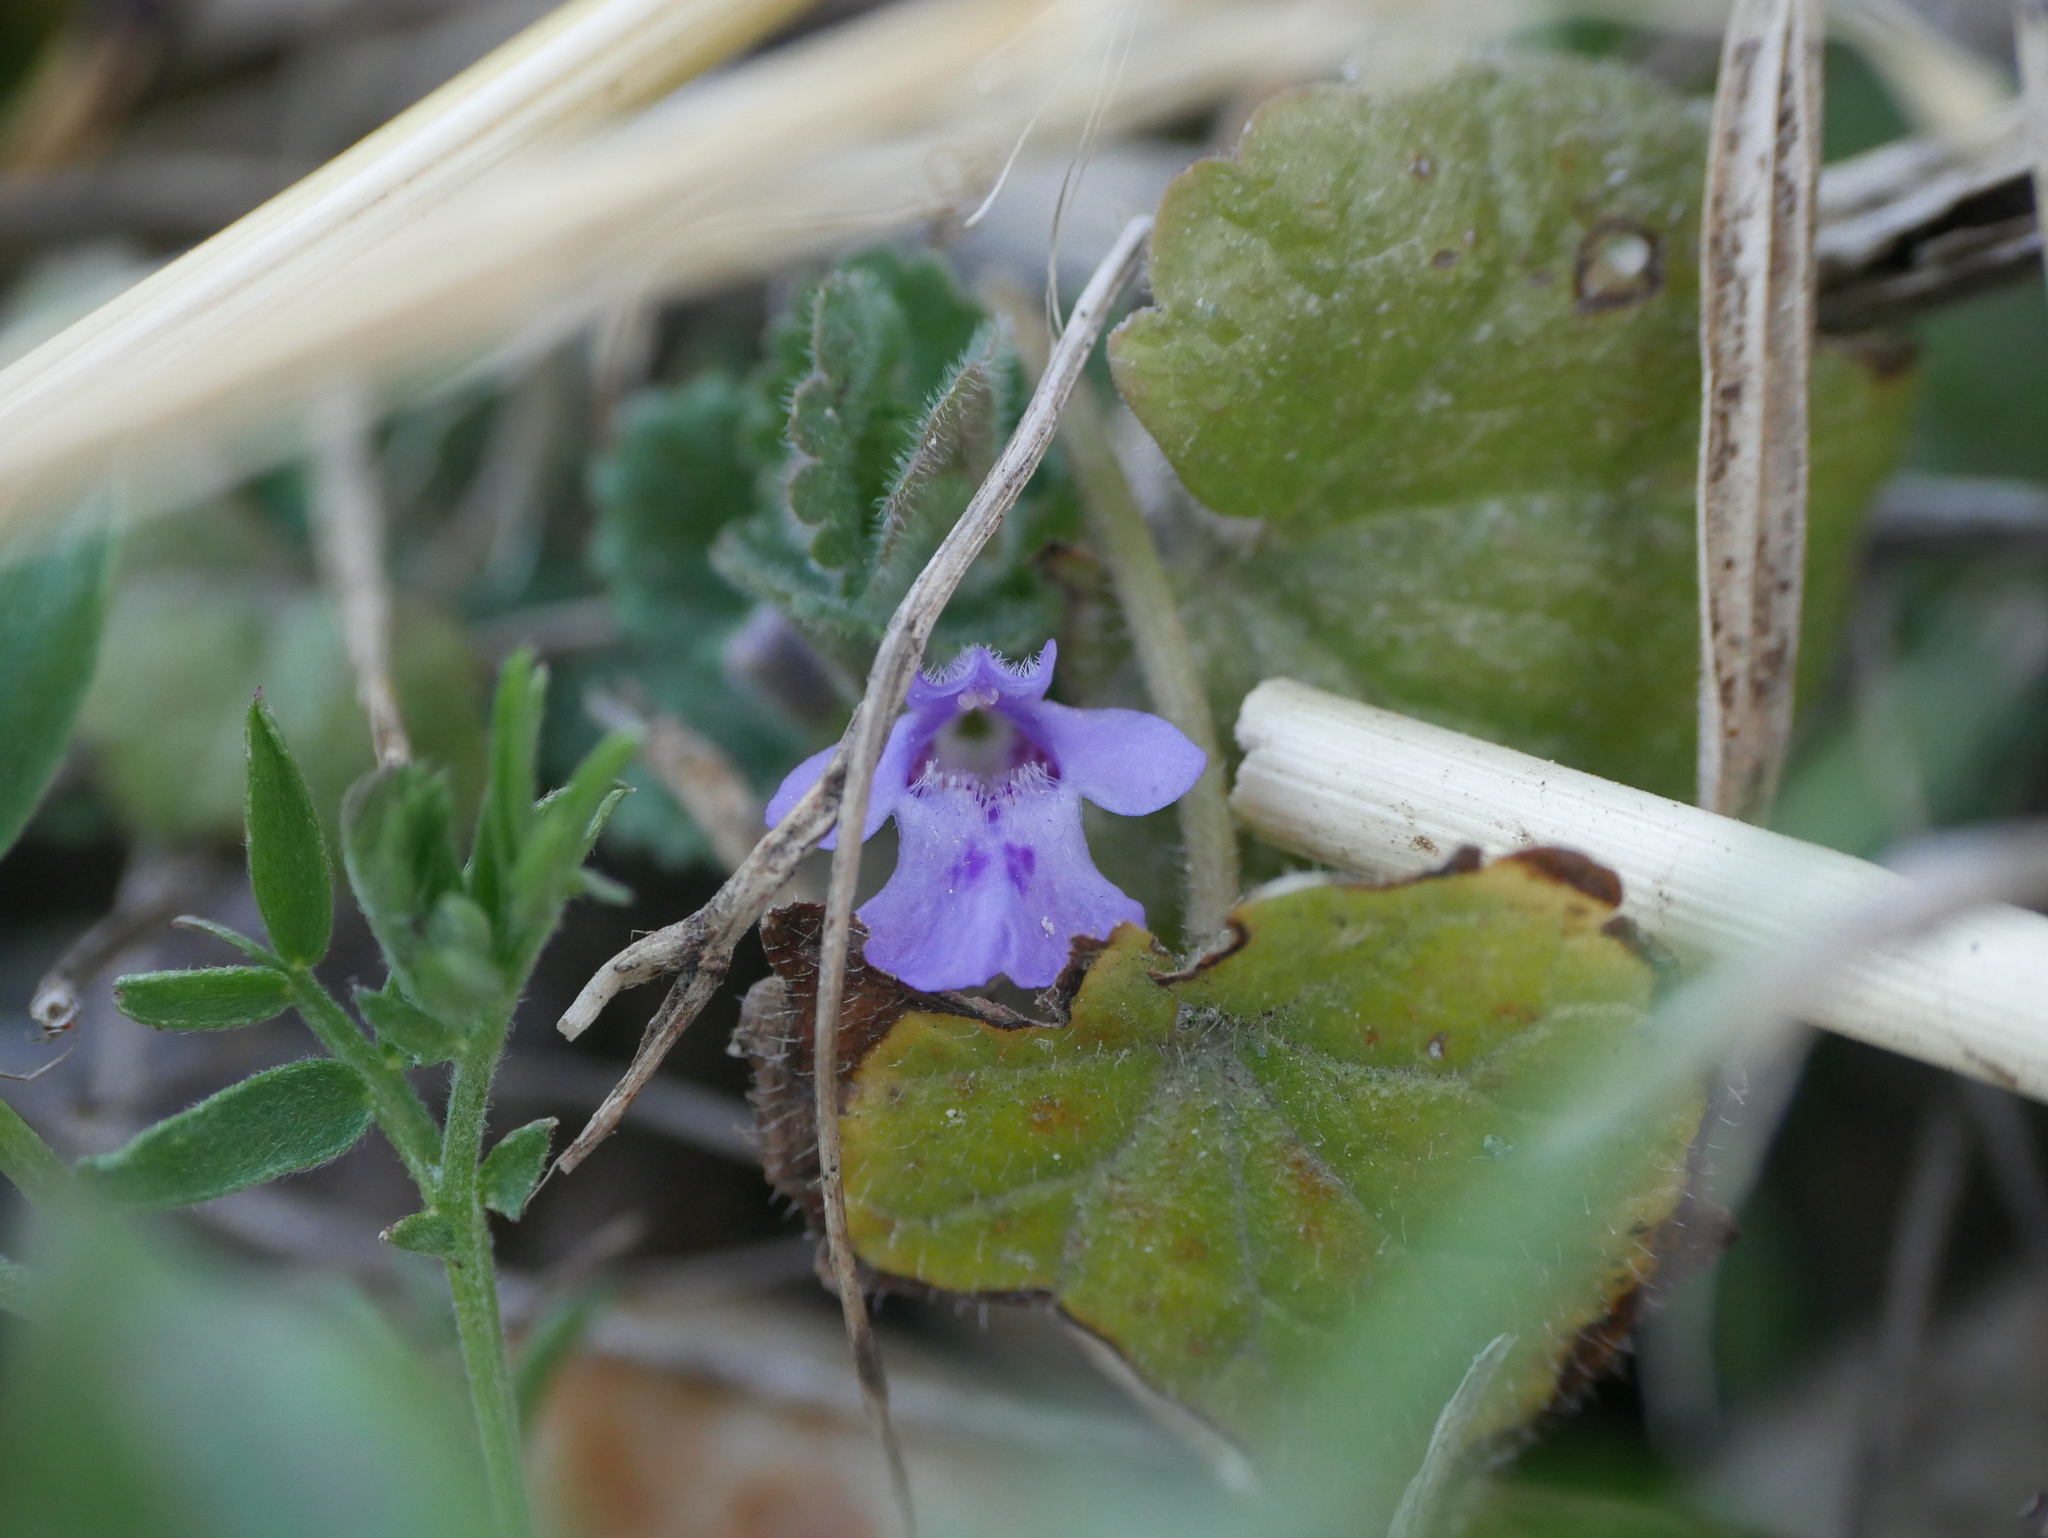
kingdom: Plantae
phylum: Tracheophyta
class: Magnoliopsida
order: Lamiales
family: Lamiaceae
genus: Glechoma
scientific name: Glechoma hederacea
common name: Ground ivy
